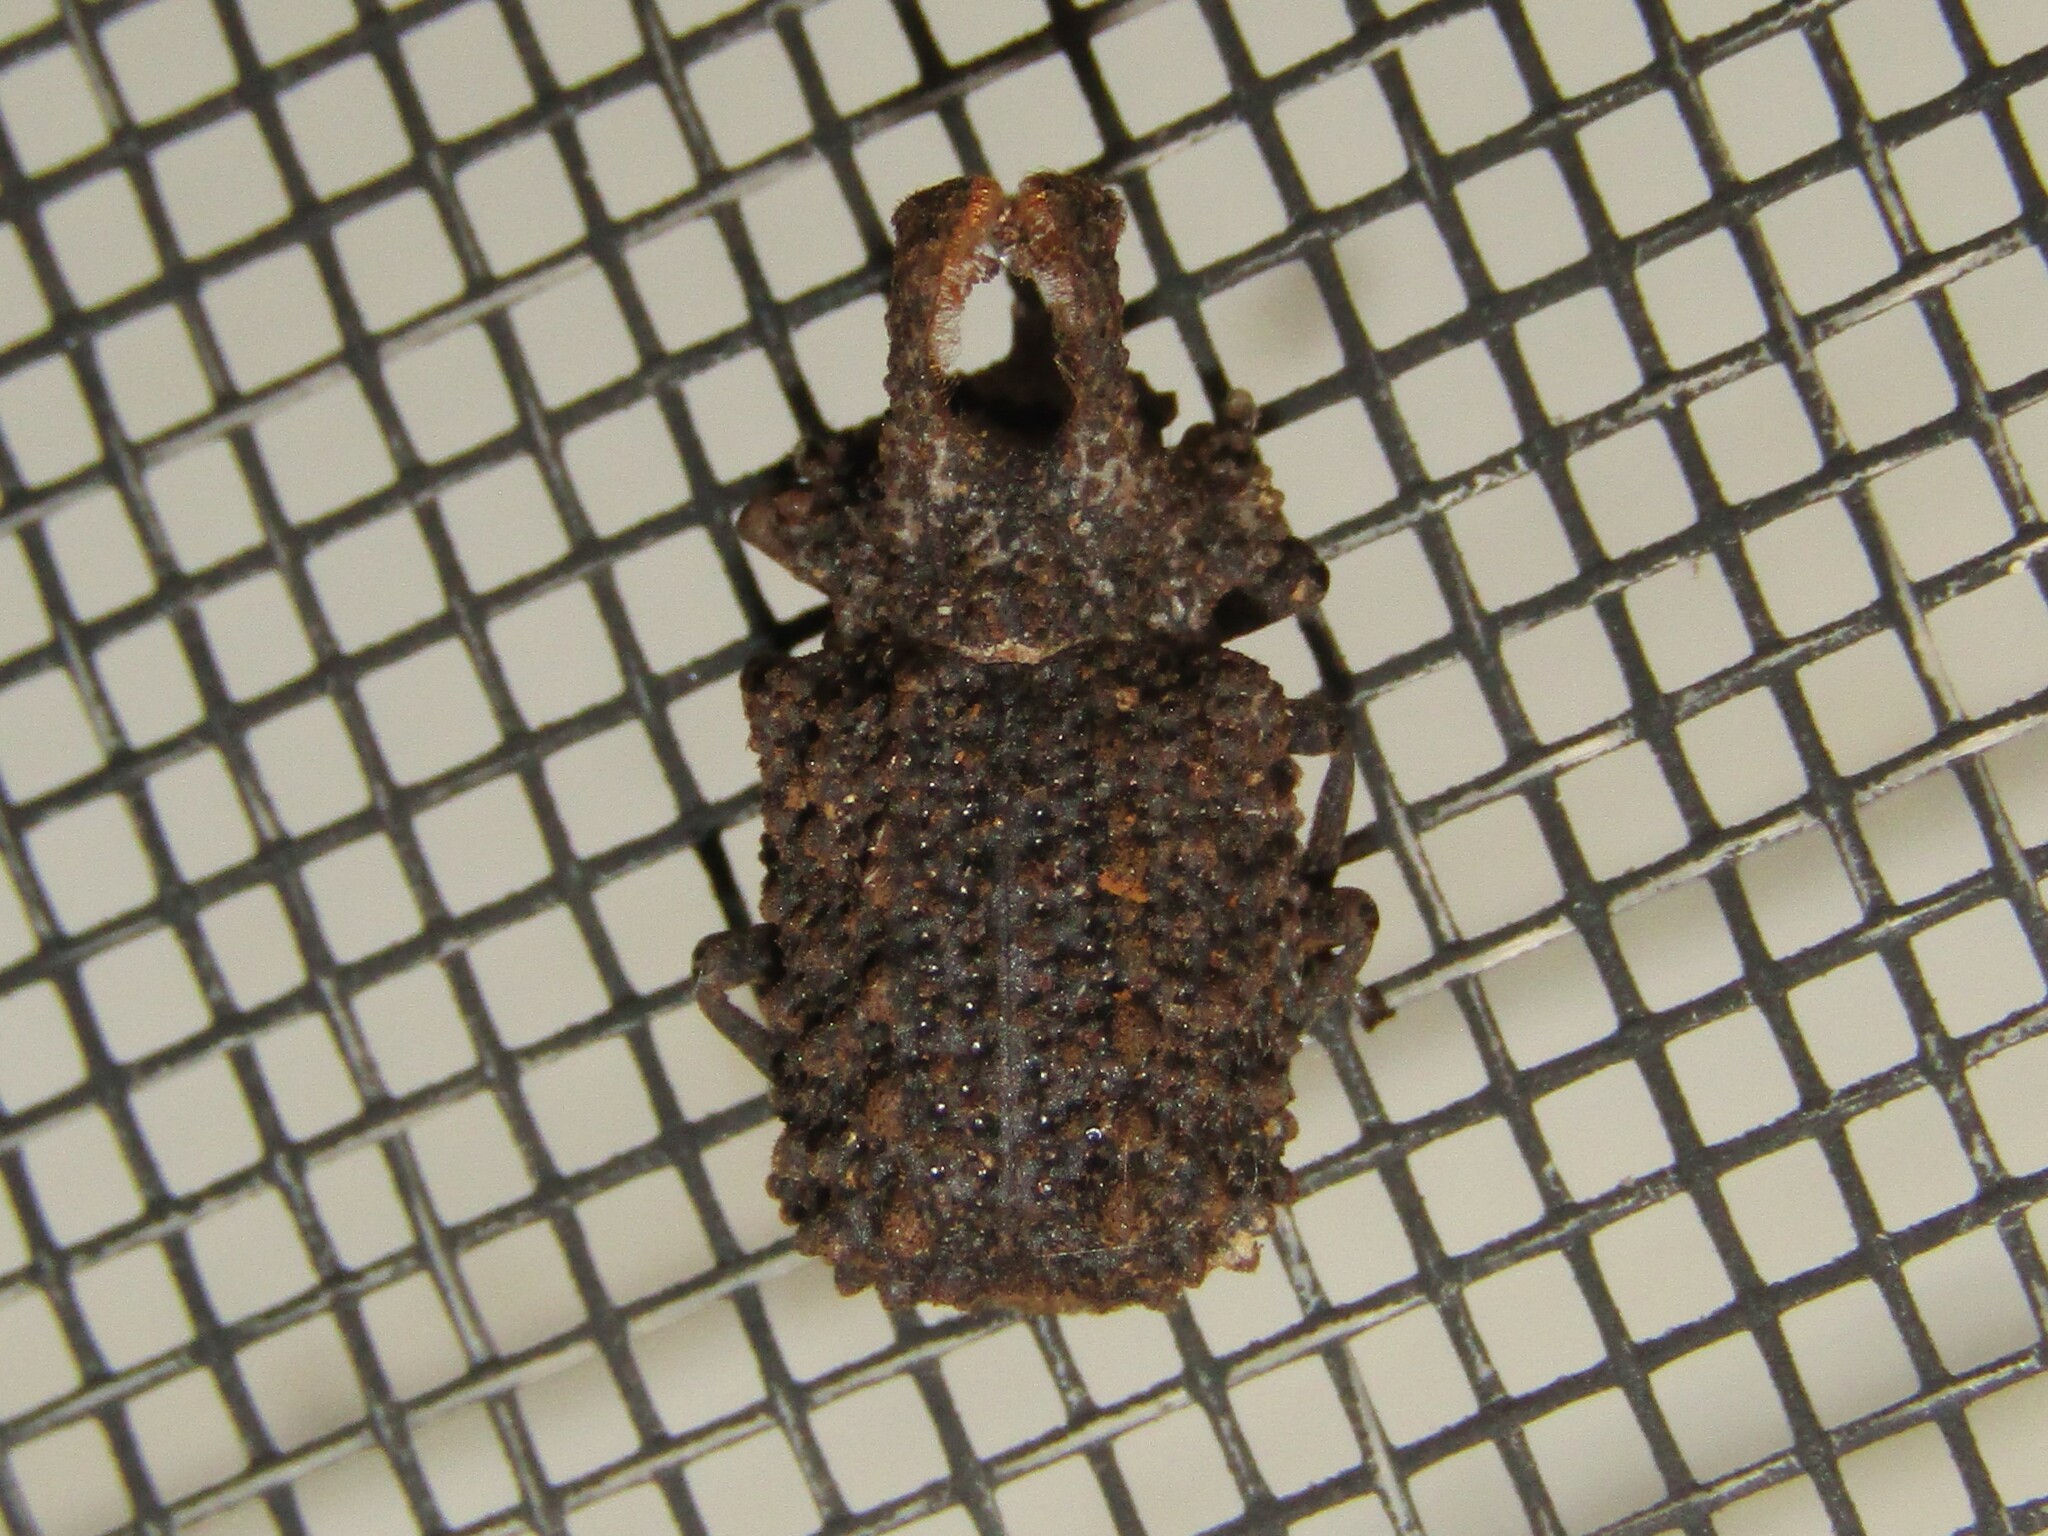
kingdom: Animalia
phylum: Arthropoda
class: Insecta
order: Coleoptera
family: Tenebrionidae
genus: Gnatocerus
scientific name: Gnatocerus cornutus
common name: Broad-horned flour beetle
